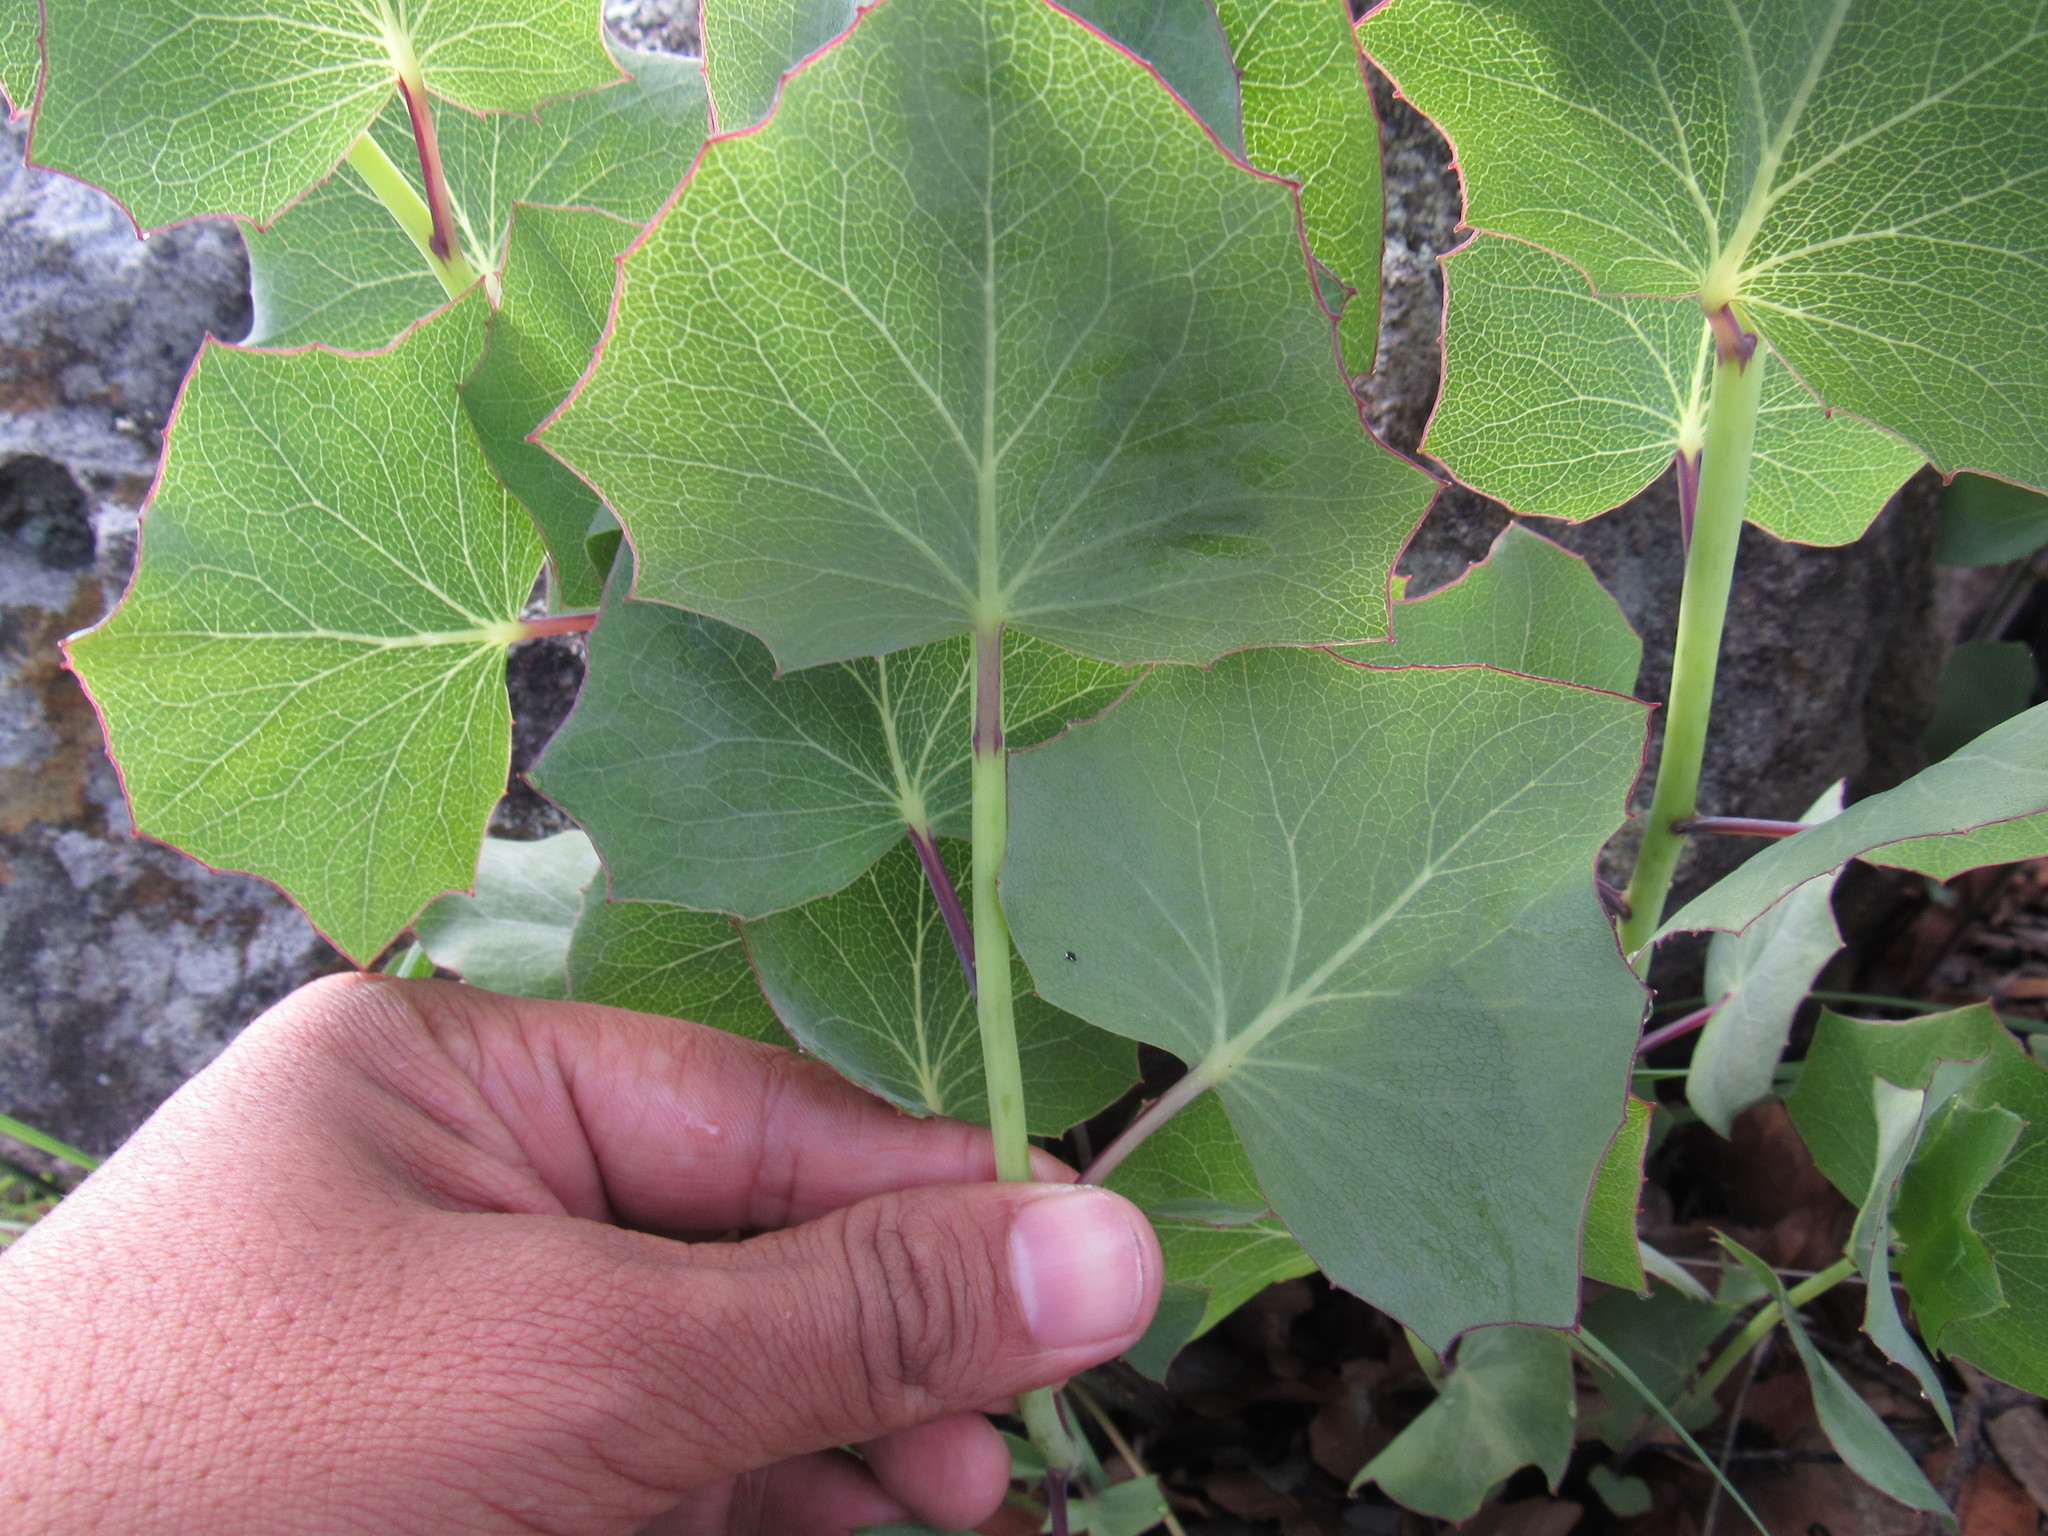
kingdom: Plantae
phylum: Tracheophyta
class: Magnoliopsida
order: Asterales
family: Asteraceae
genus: Roldana
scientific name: Roldana sessilifolia
